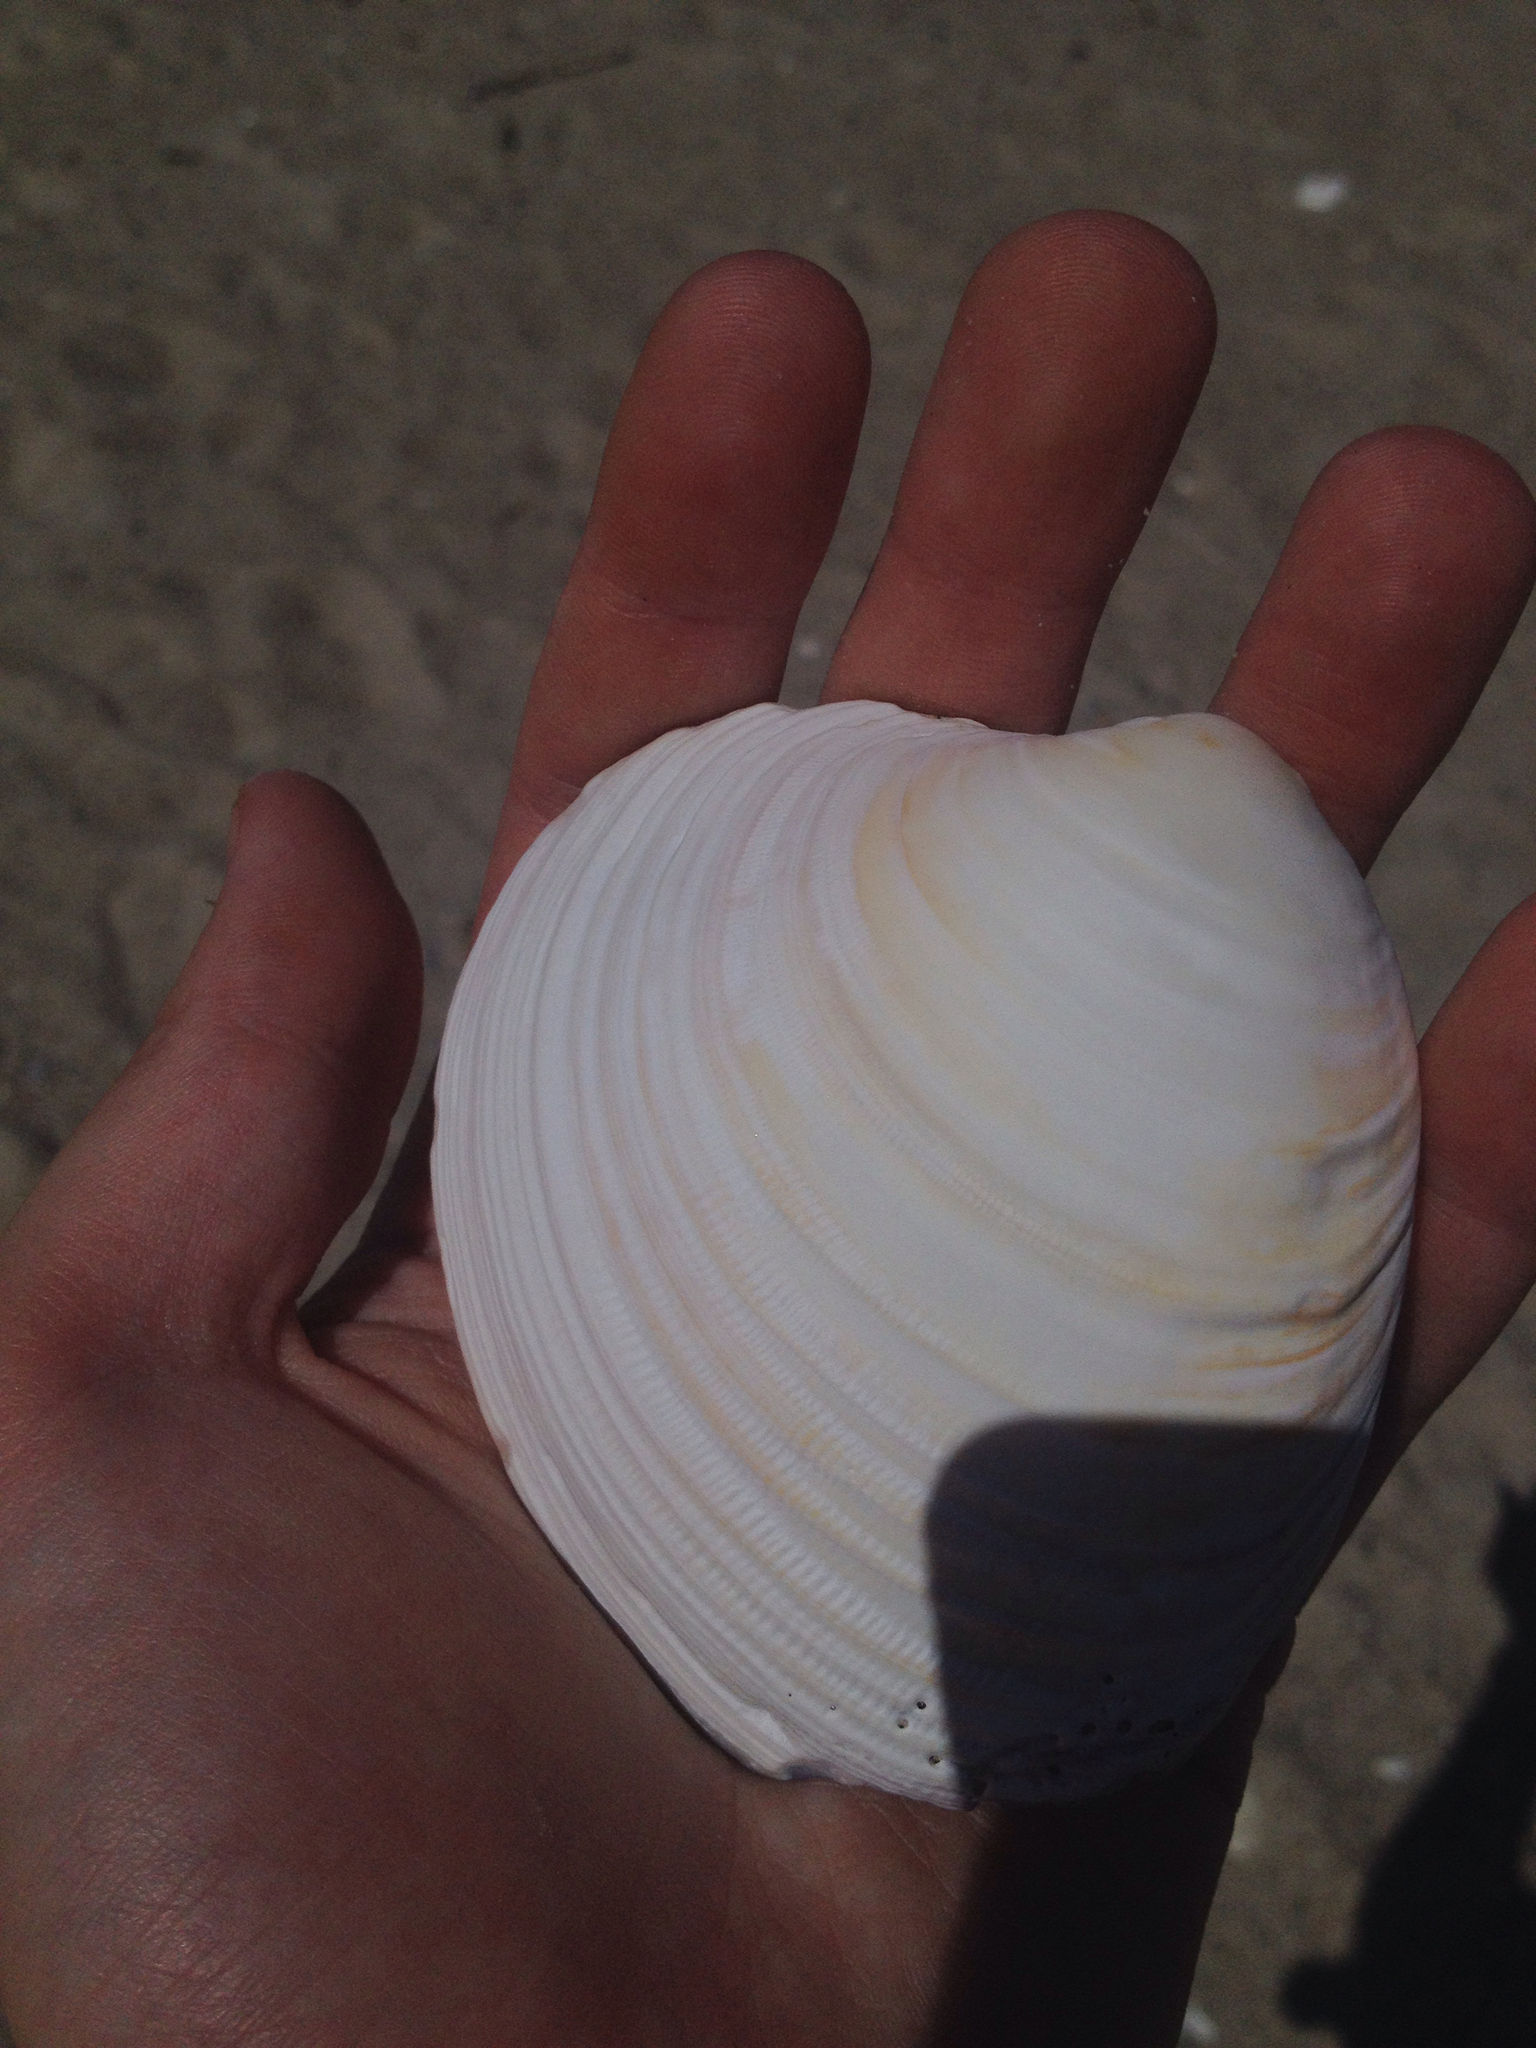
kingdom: Animalia
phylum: Mollusca
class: Bivalvia
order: Venerida
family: Veneridae
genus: Mercenaria
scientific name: Mercenaria mercenaria
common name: American hard-shelled clam
